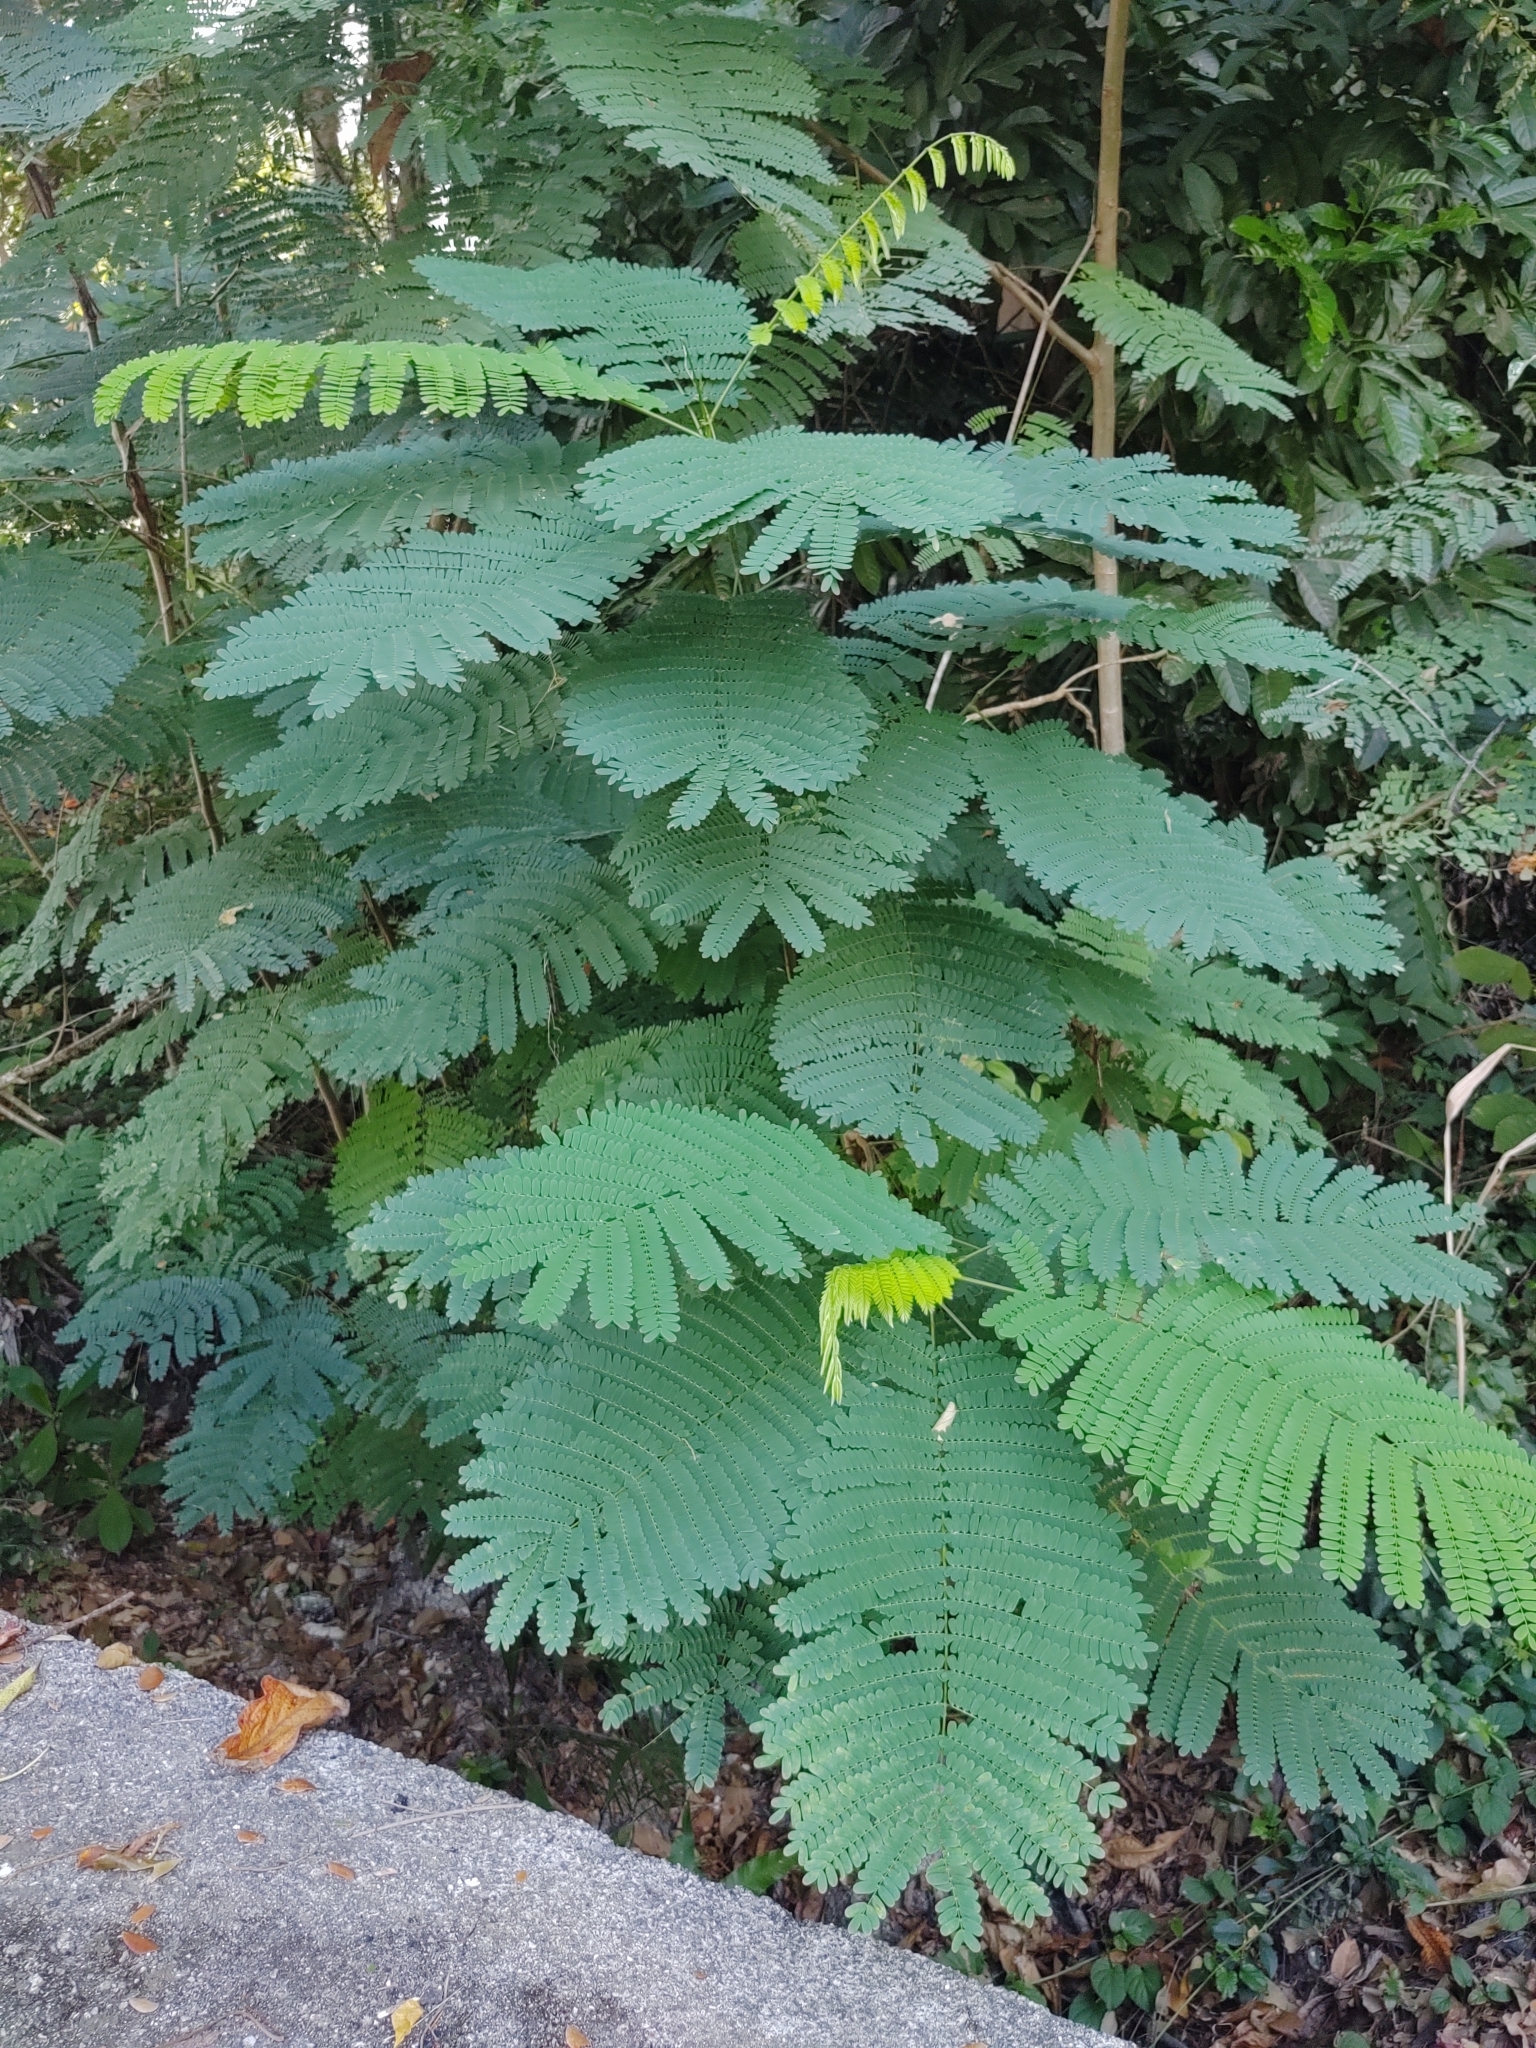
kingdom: Plantae
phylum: Tracheophyta
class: Magnoliopsida
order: Fabales
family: Fabaceae
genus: Delonix
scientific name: Delonix regia
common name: Royal poinciana
